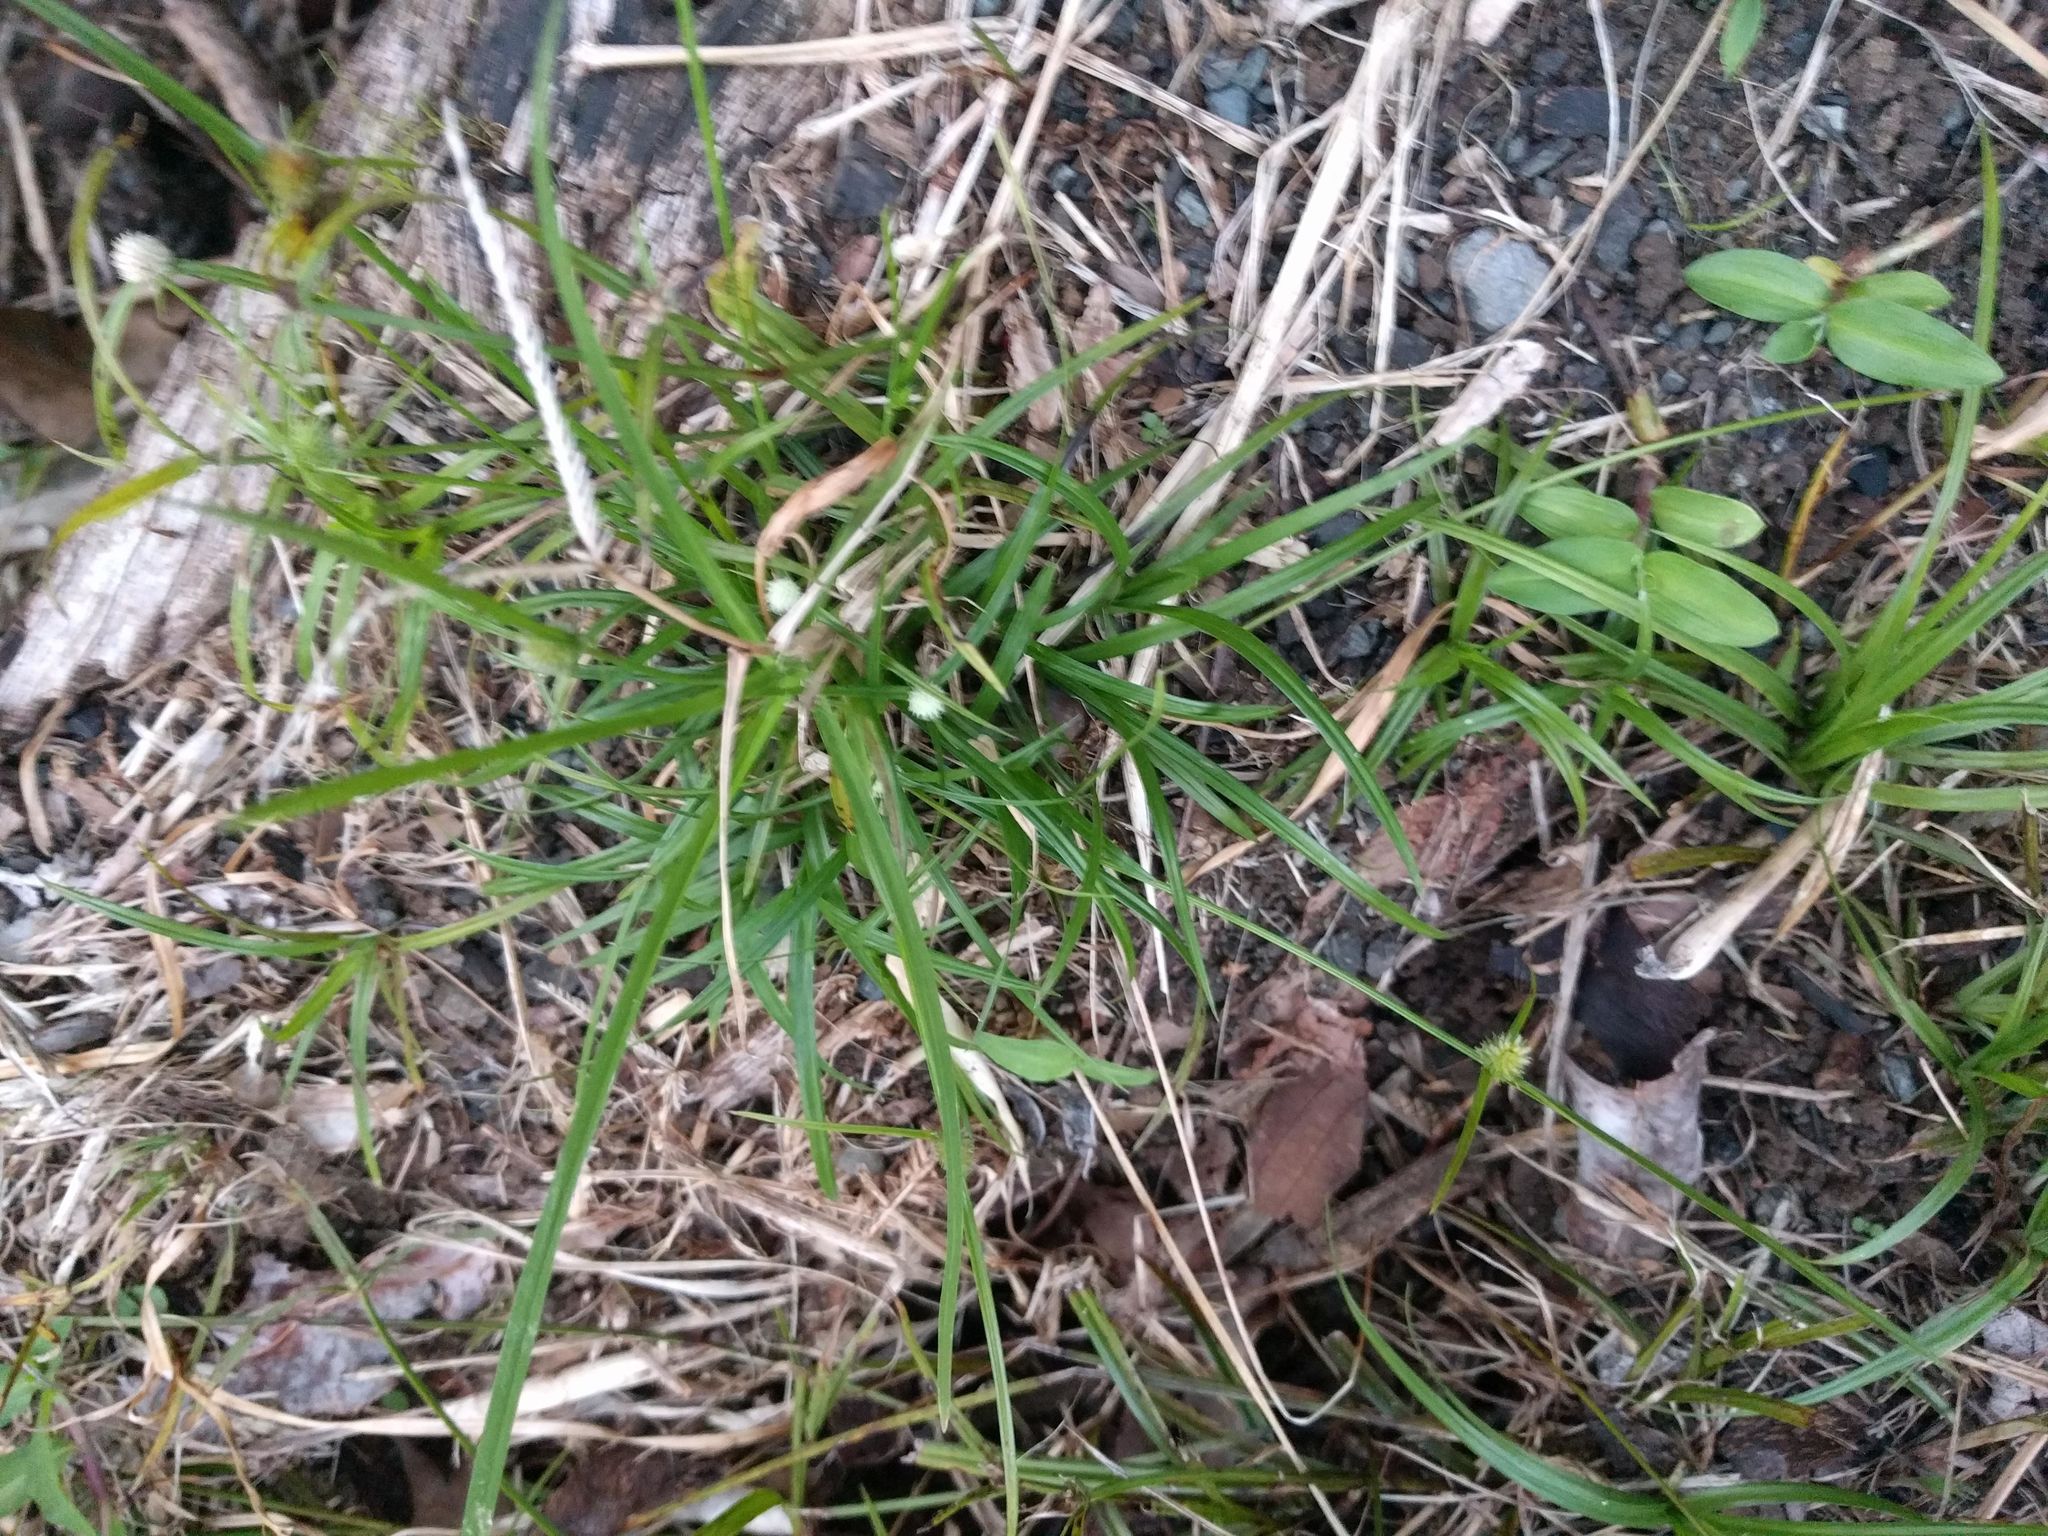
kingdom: Plantae
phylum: Tracheophyta
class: Liliopsida
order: Poales
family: Cyperaceae
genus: Cyperus
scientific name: Cyperus mindorensis
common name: Flatsedge
